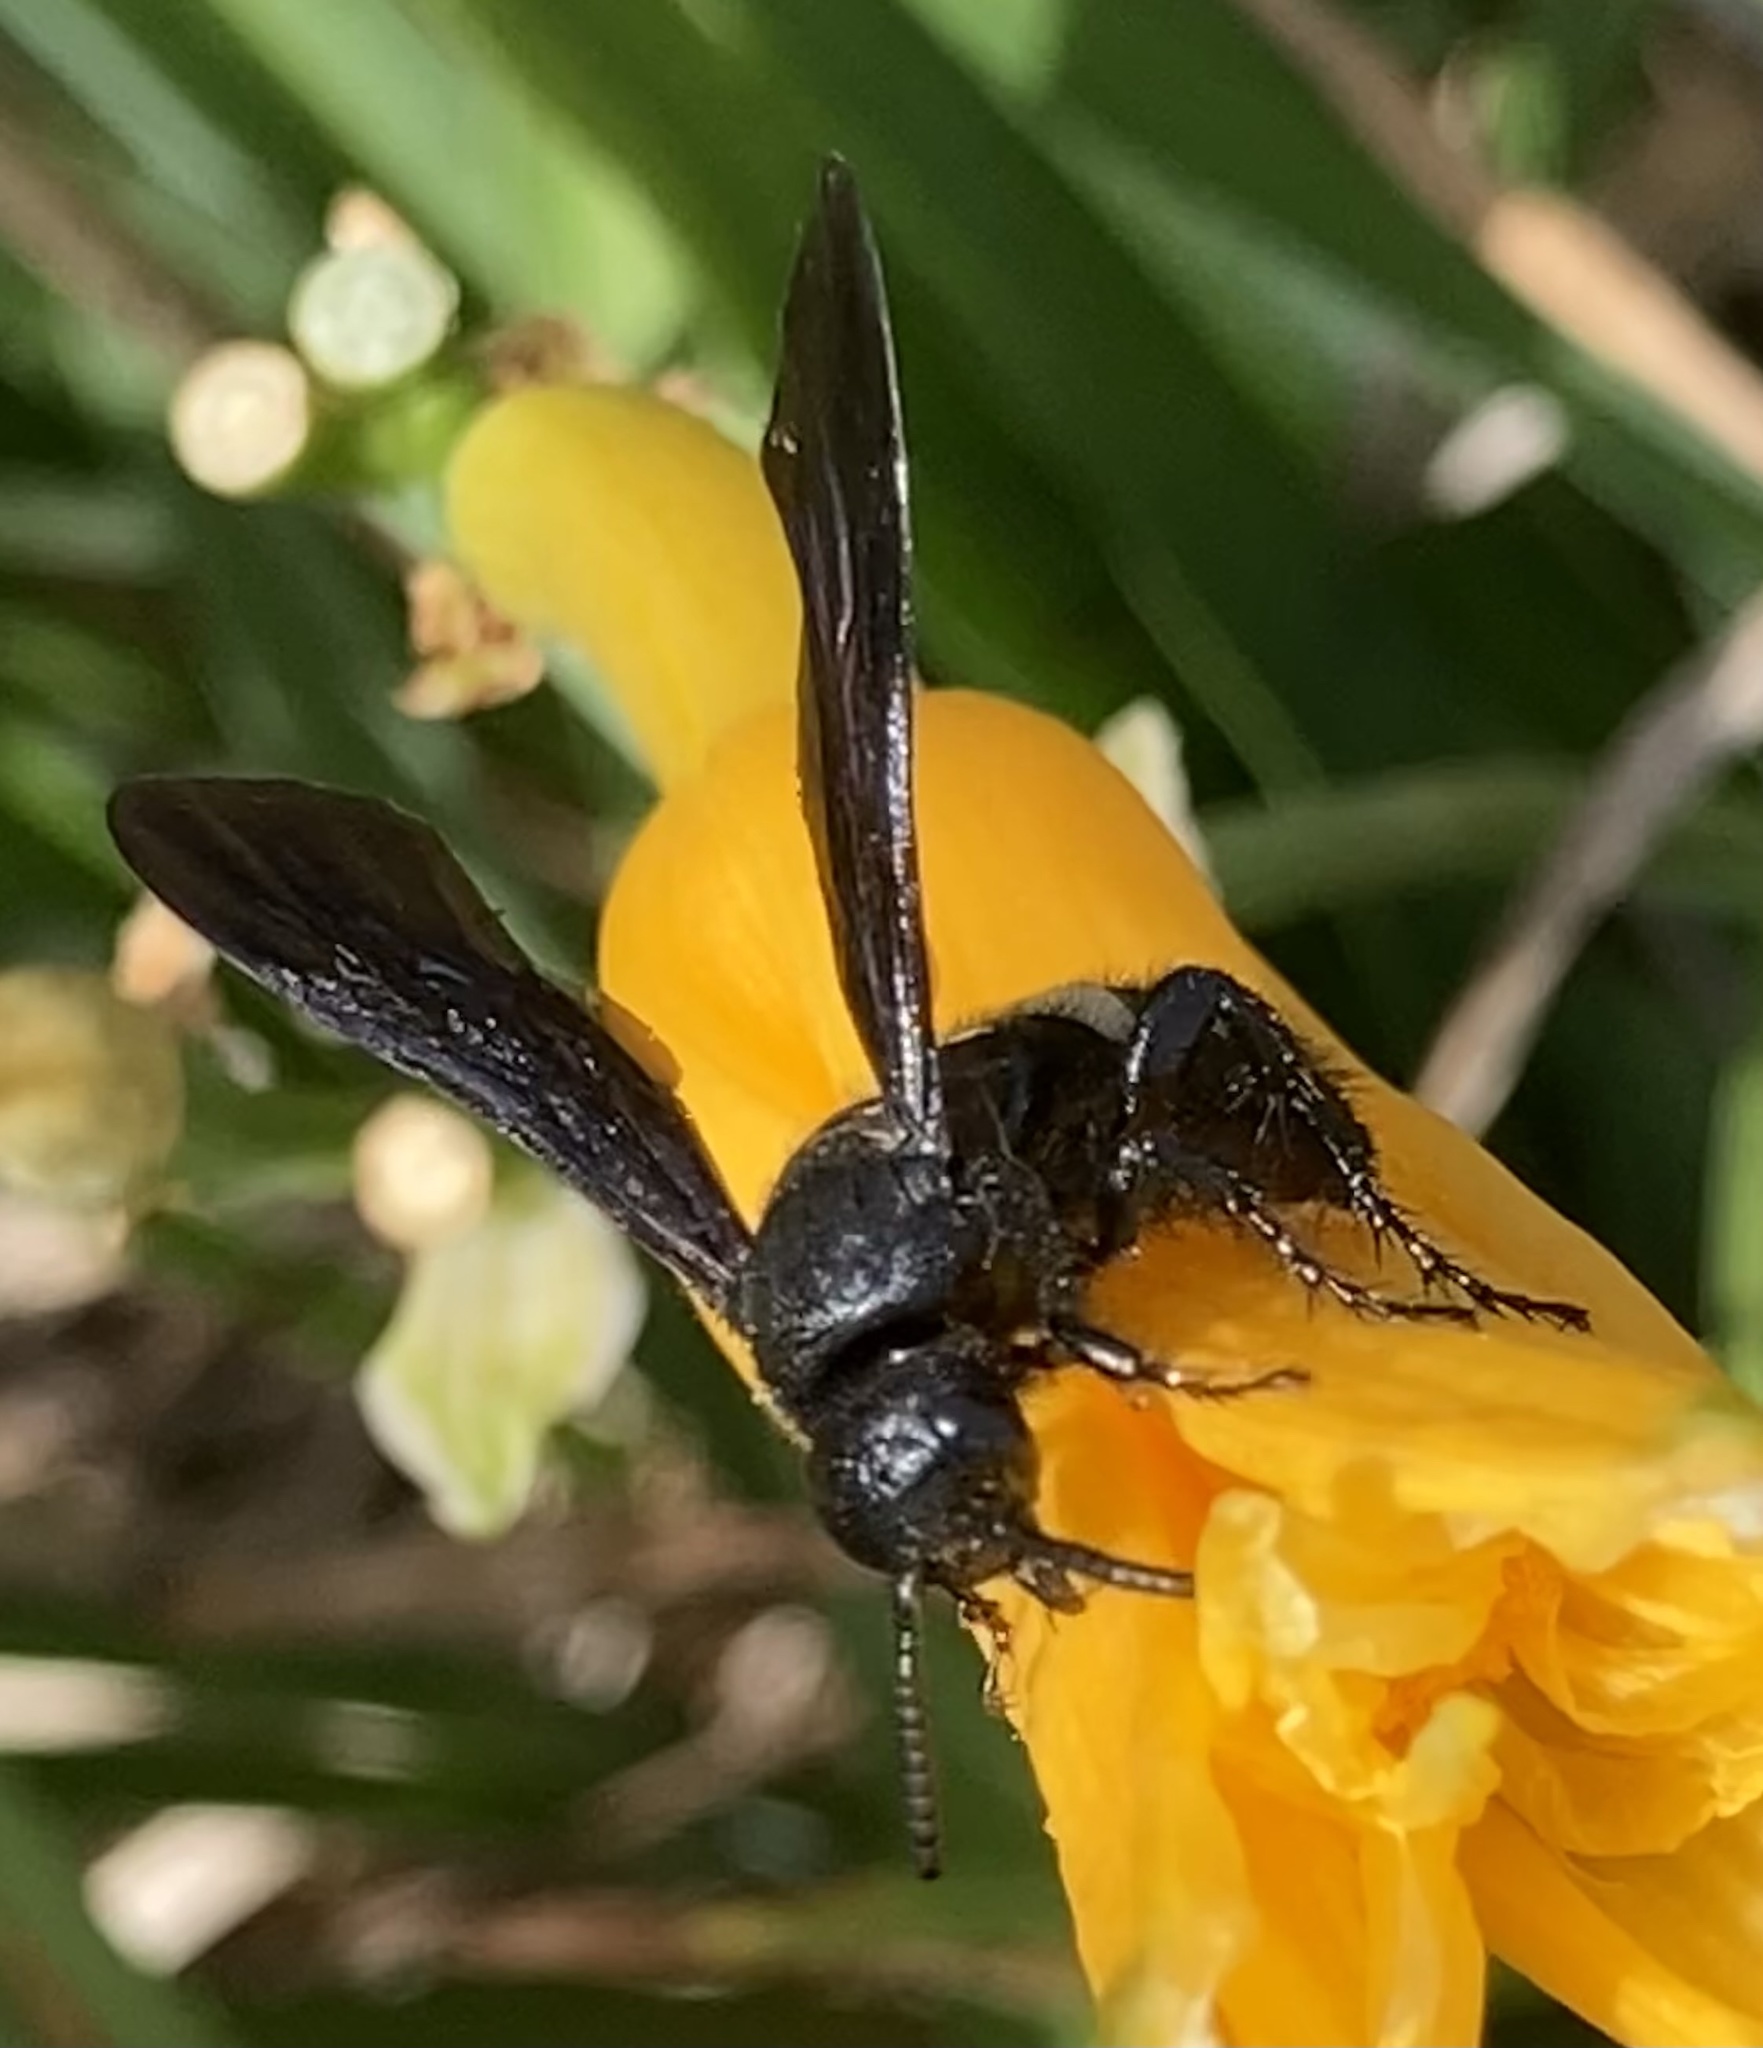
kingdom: Animalia
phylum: Arthropoda
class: Insecta
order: Hymenoptera
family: Scoliidae
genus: Scolia
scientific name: Scolia bicincta
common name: Double-banded scoliid wasp
